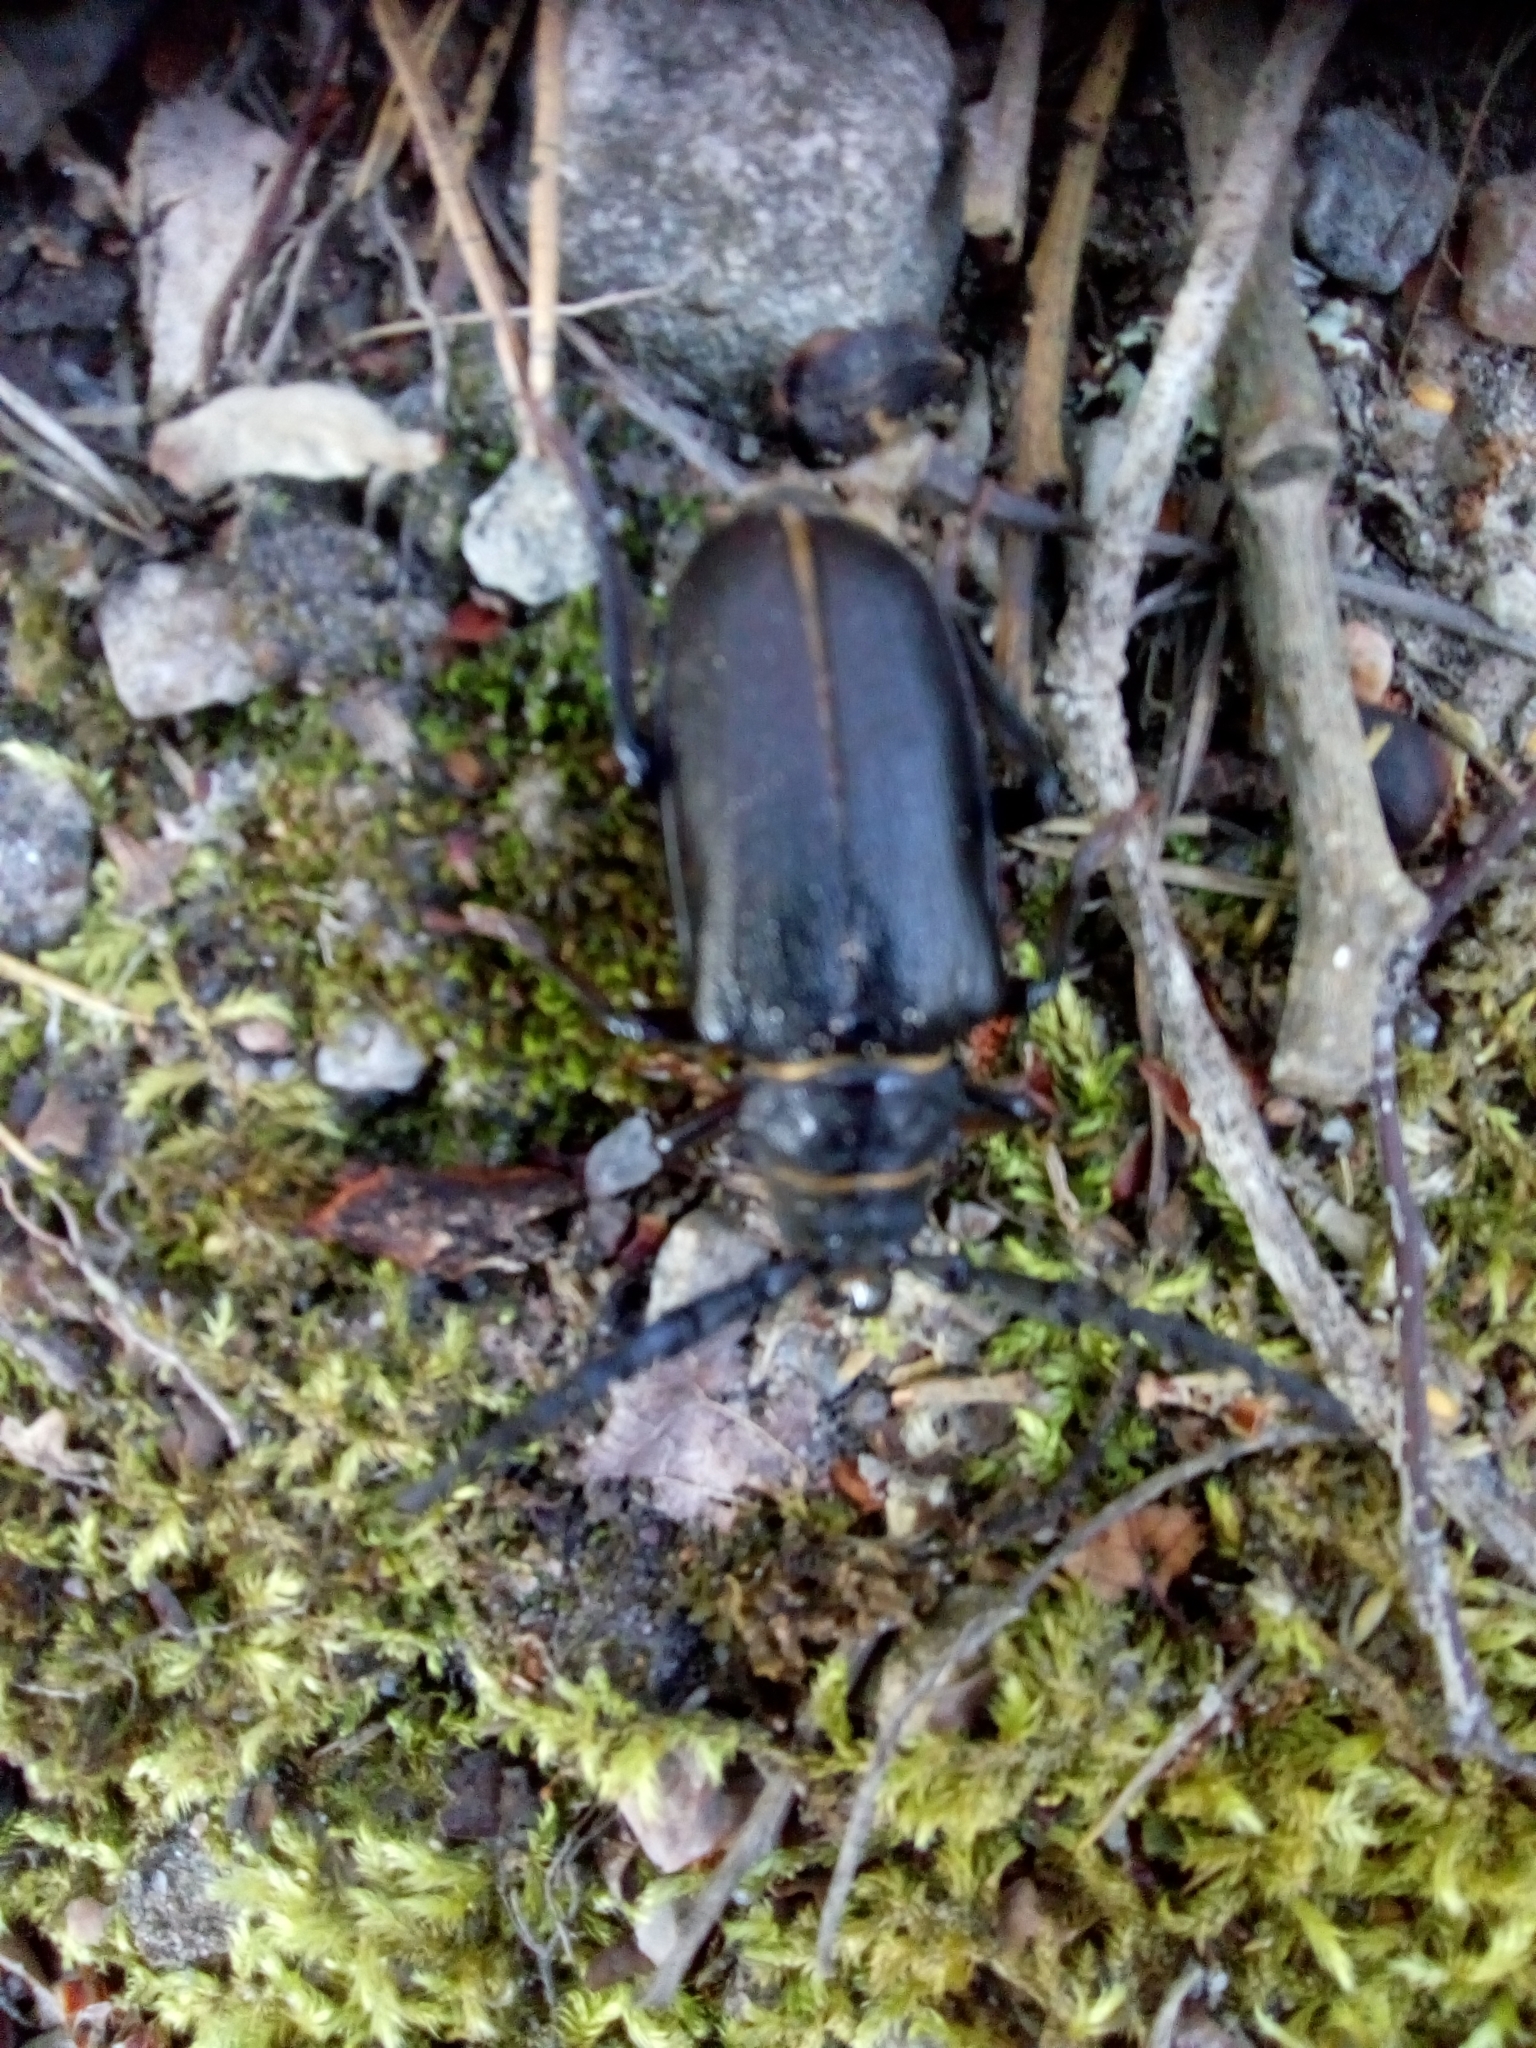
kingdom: Animalia
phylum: Arthropoda
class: Insecta
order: Coleoptera
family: Cerambycidae
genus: Prionus
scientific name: Prionus coriarius
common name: Tanner beetle
